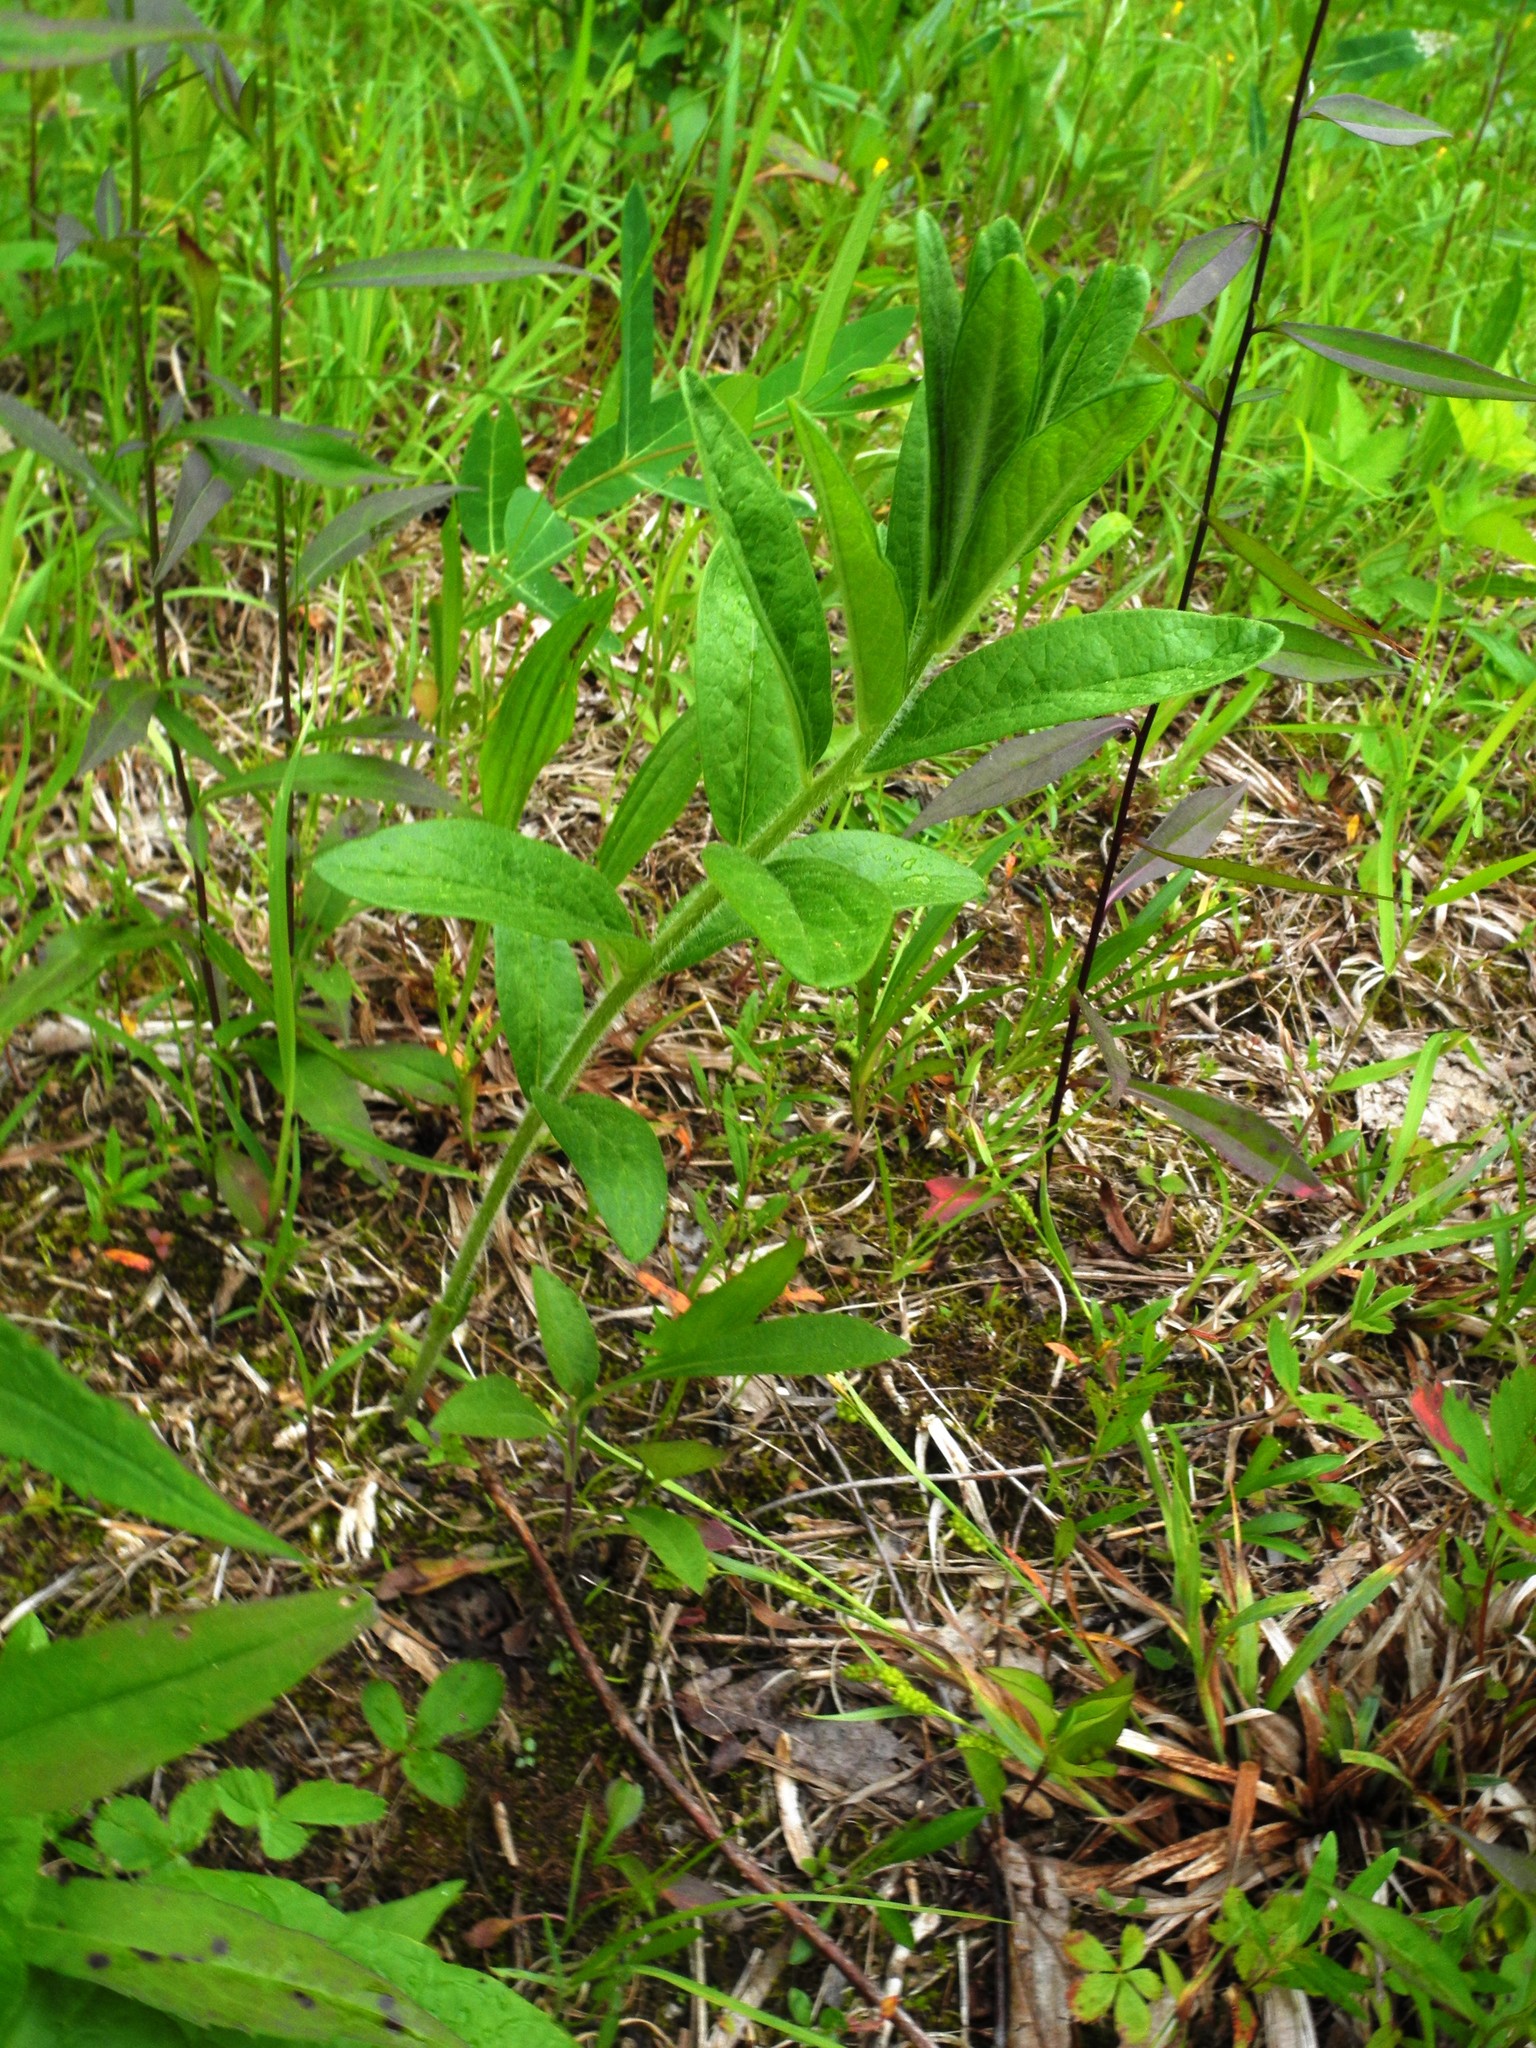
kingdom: Plantae
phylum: Tracheophyta
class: Magnoliopsida
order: Gentianales
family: Apocynaceae
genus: Asclepias
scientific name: Asclepias tuberosa
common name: Butterfly milkweed
